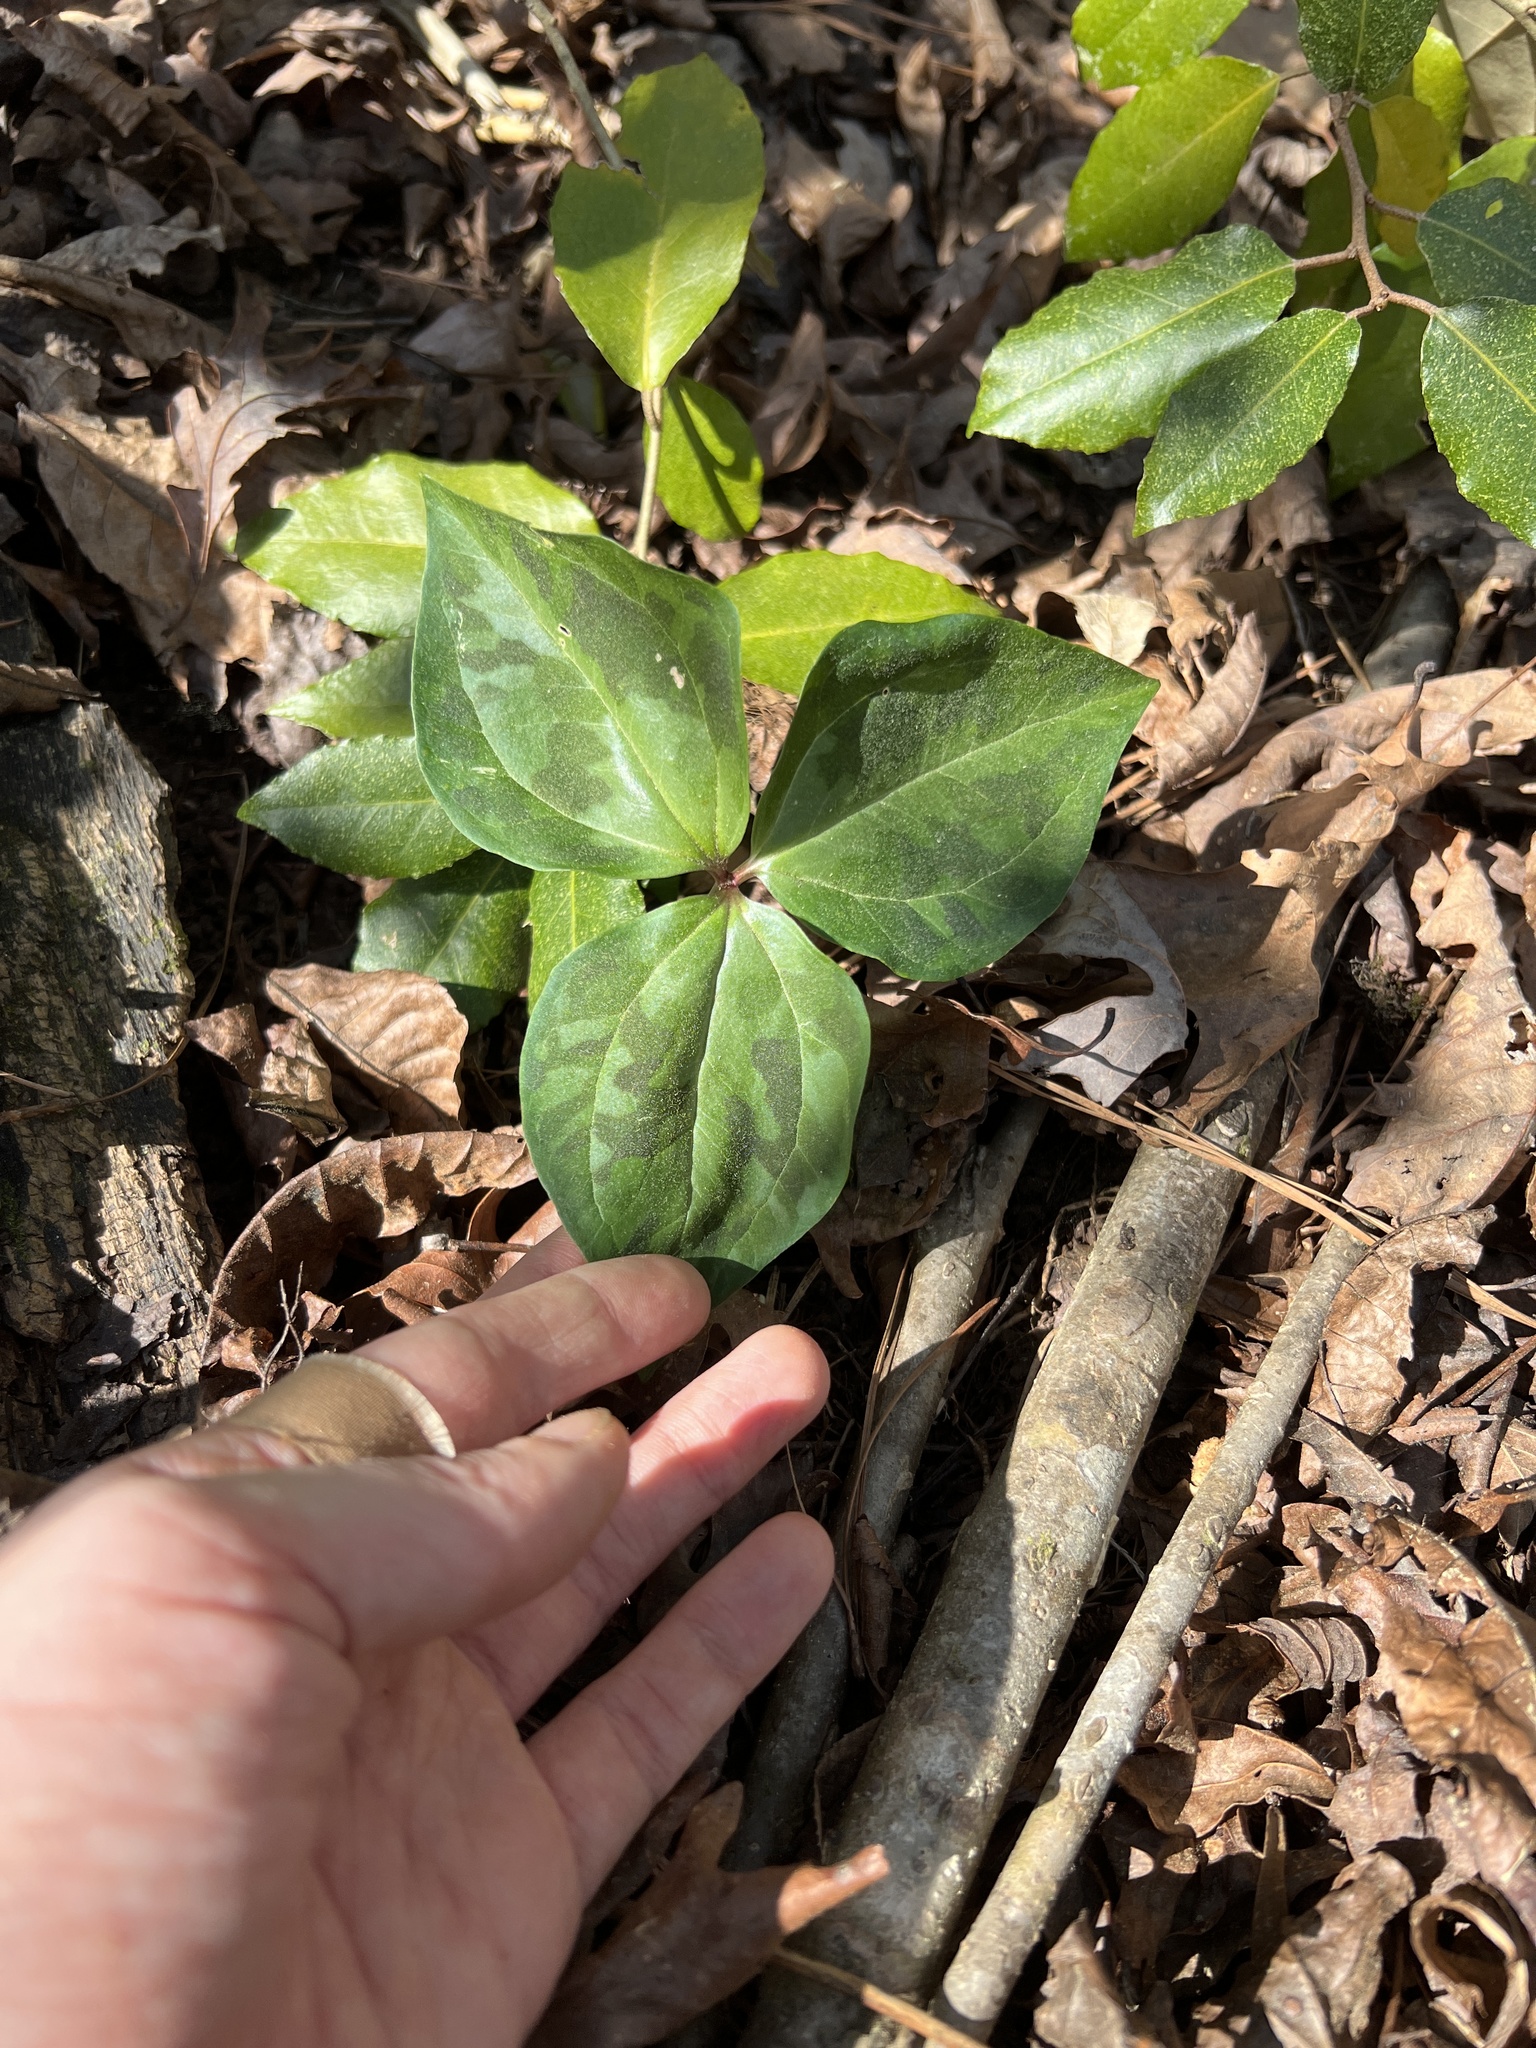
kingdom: Plantae
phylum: Tracheophyta
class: Liliopsida
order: Liliales
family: Melanthiaceae
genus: Trillium
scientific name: Trillium cuneatum
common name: Cuneate trillium
